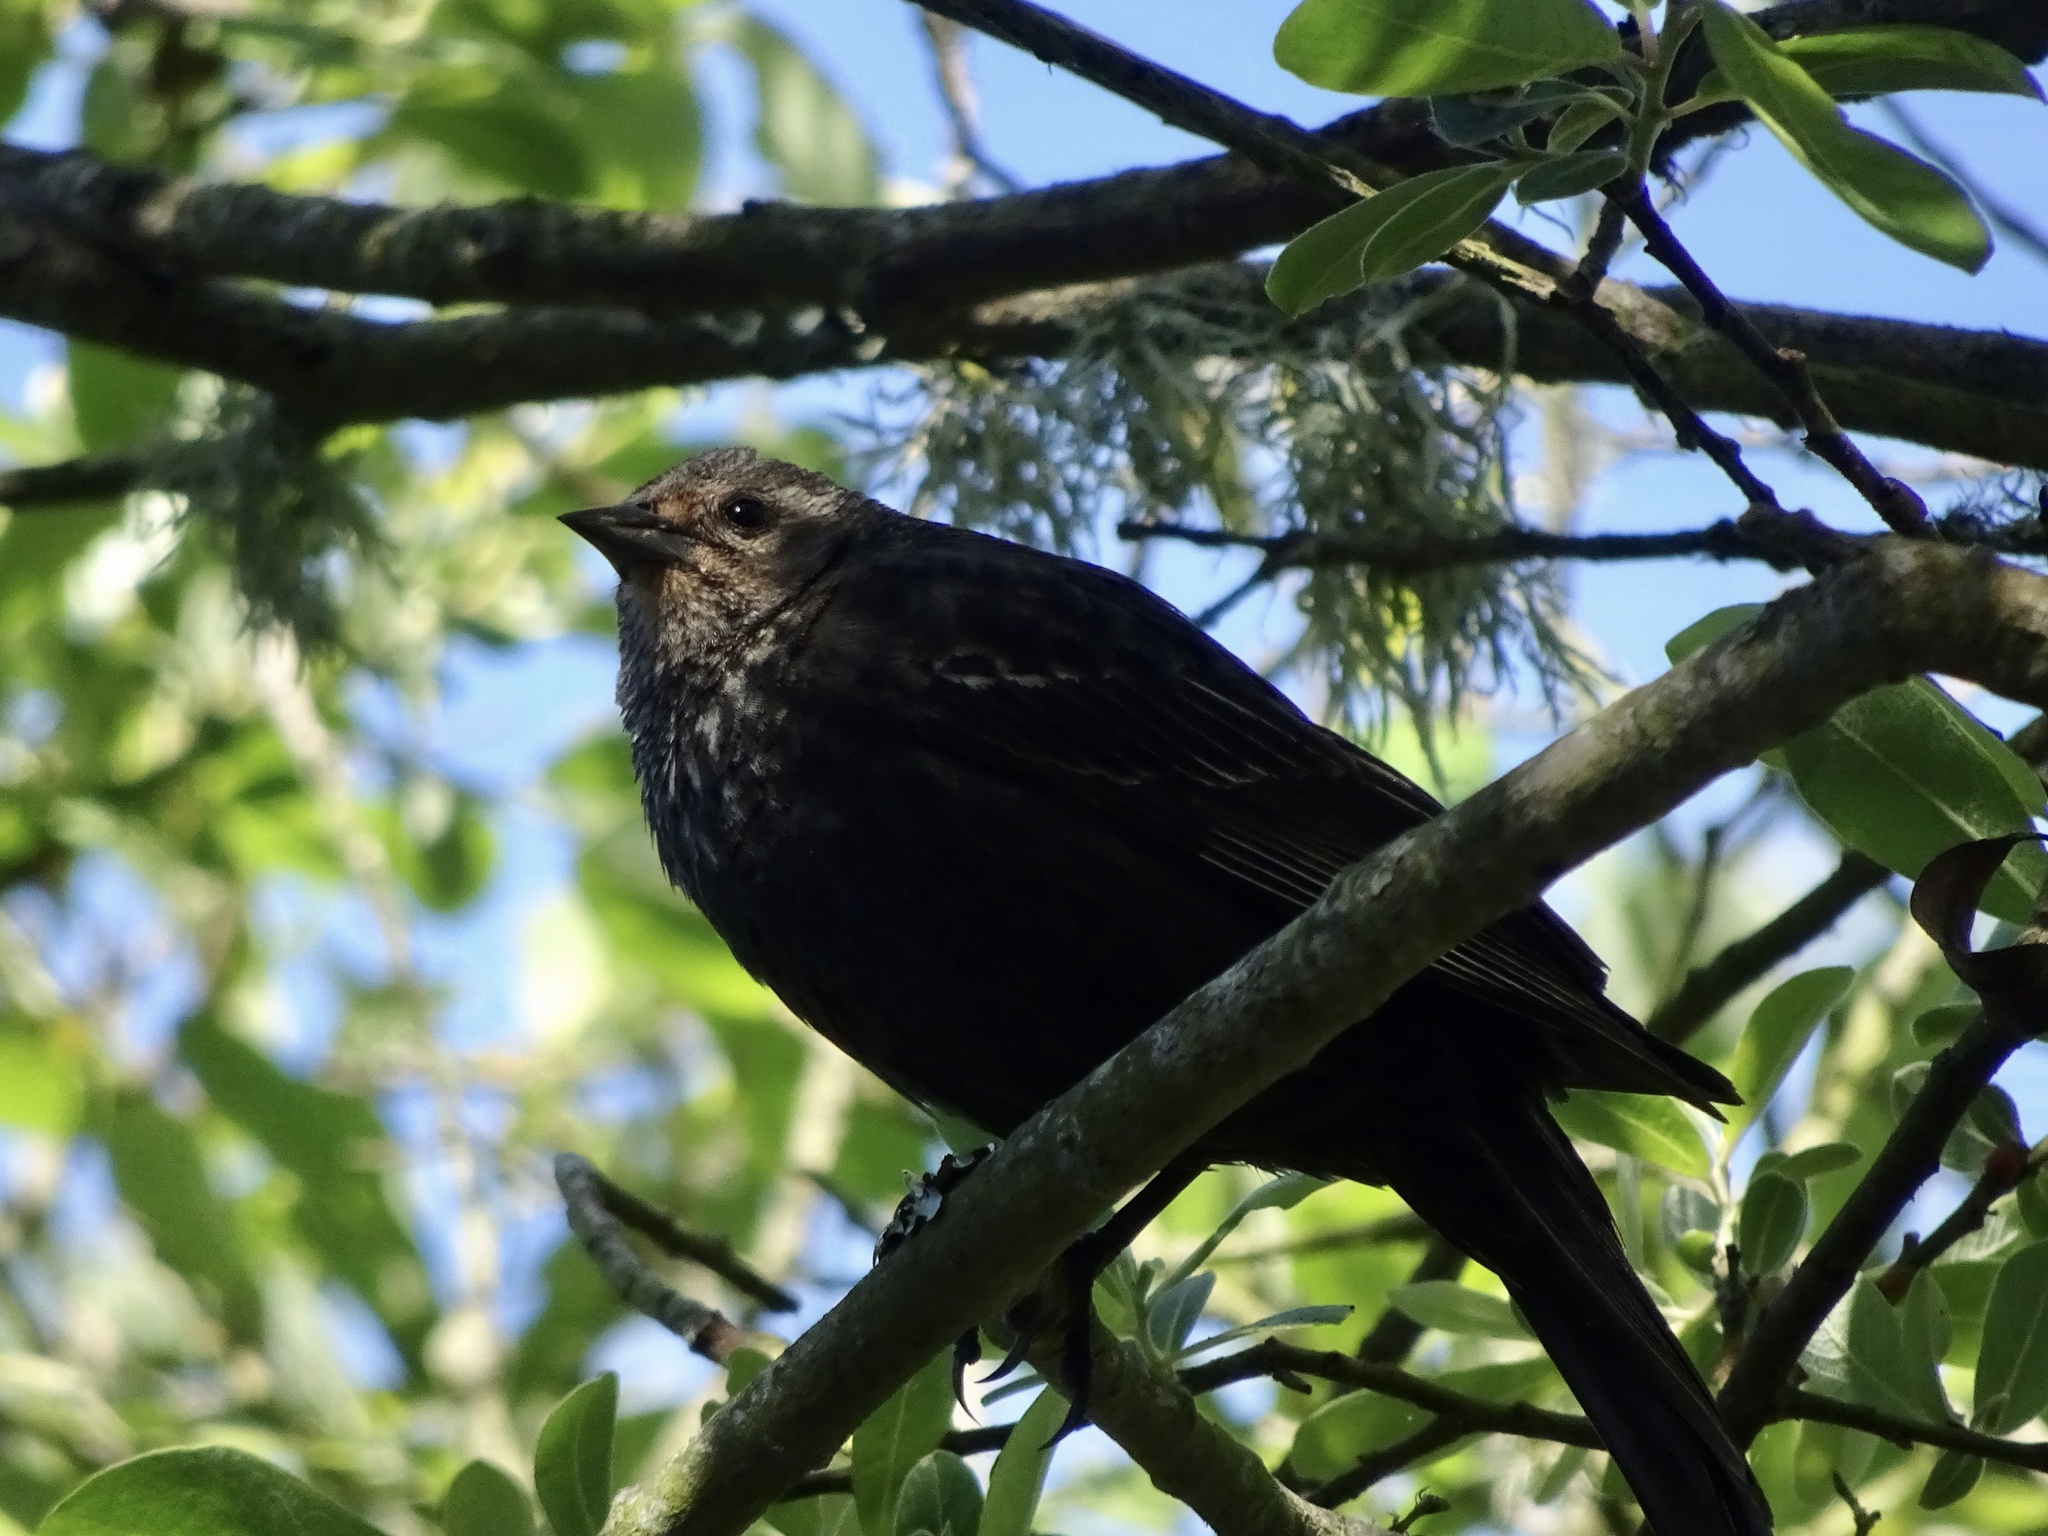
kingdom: Animalia
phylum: Chordata
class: Aves
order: Passeriformes
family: Icteridae
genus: Agelaius
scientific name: Agelaius phoeniceus
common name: Red-winged blackbird
